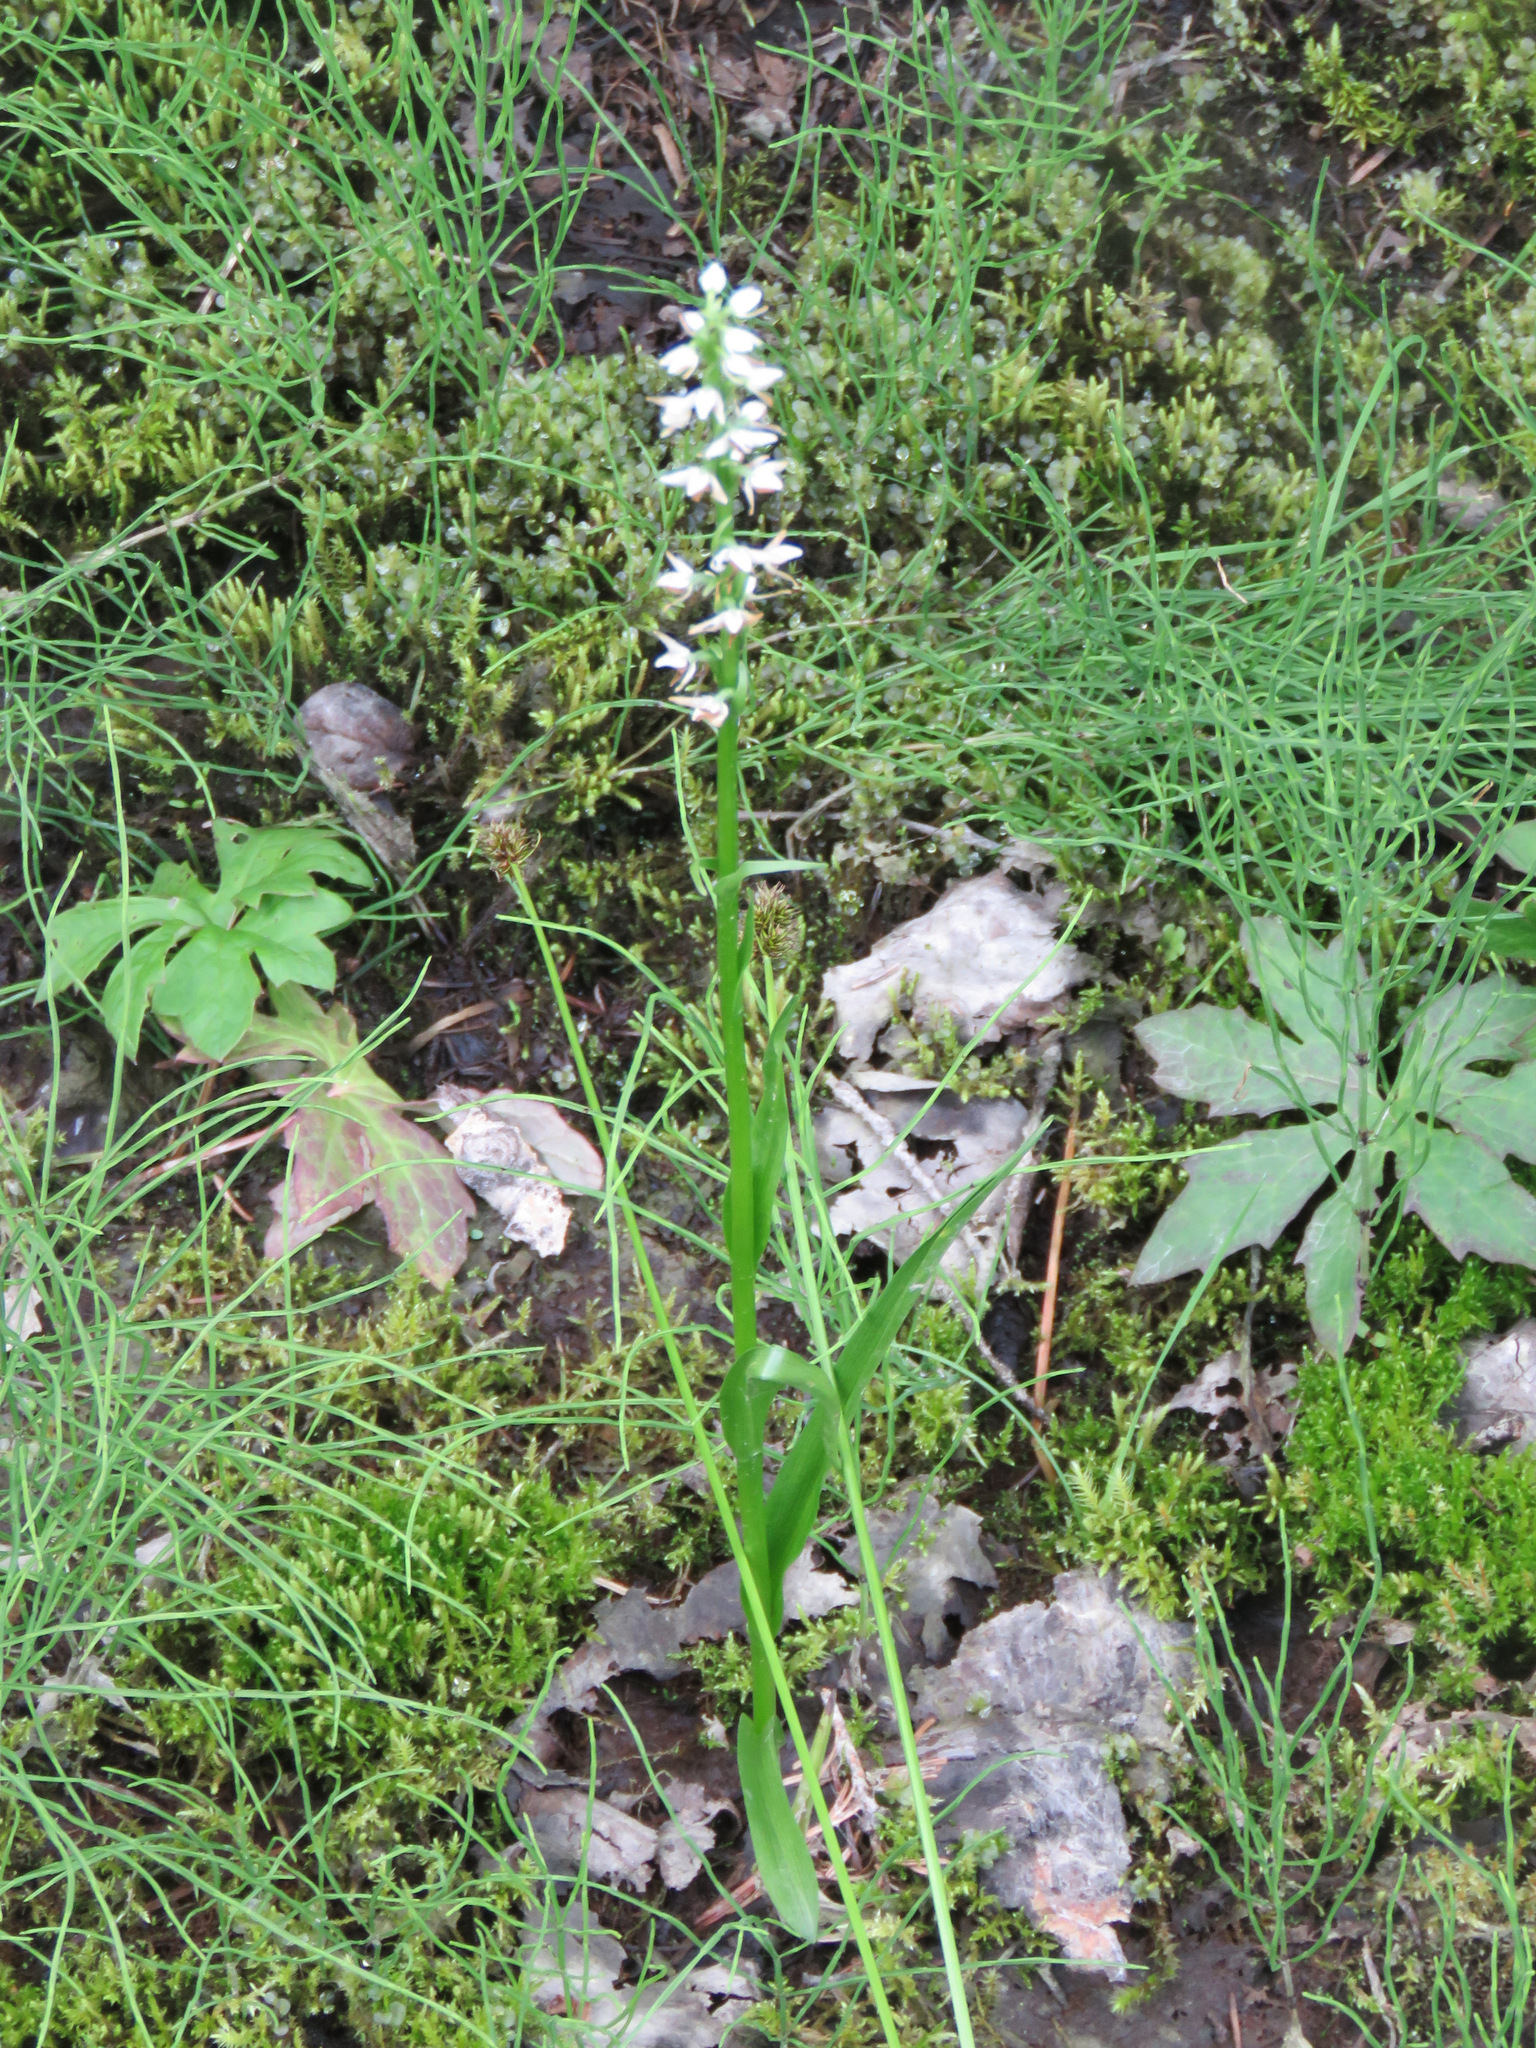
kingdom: Plantae
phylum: Tracheophyta
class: Liliopsida
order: Asparagales
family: Orchidaceae
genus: Platanthera
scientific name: Platanthera dilatata
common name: Bog candles
